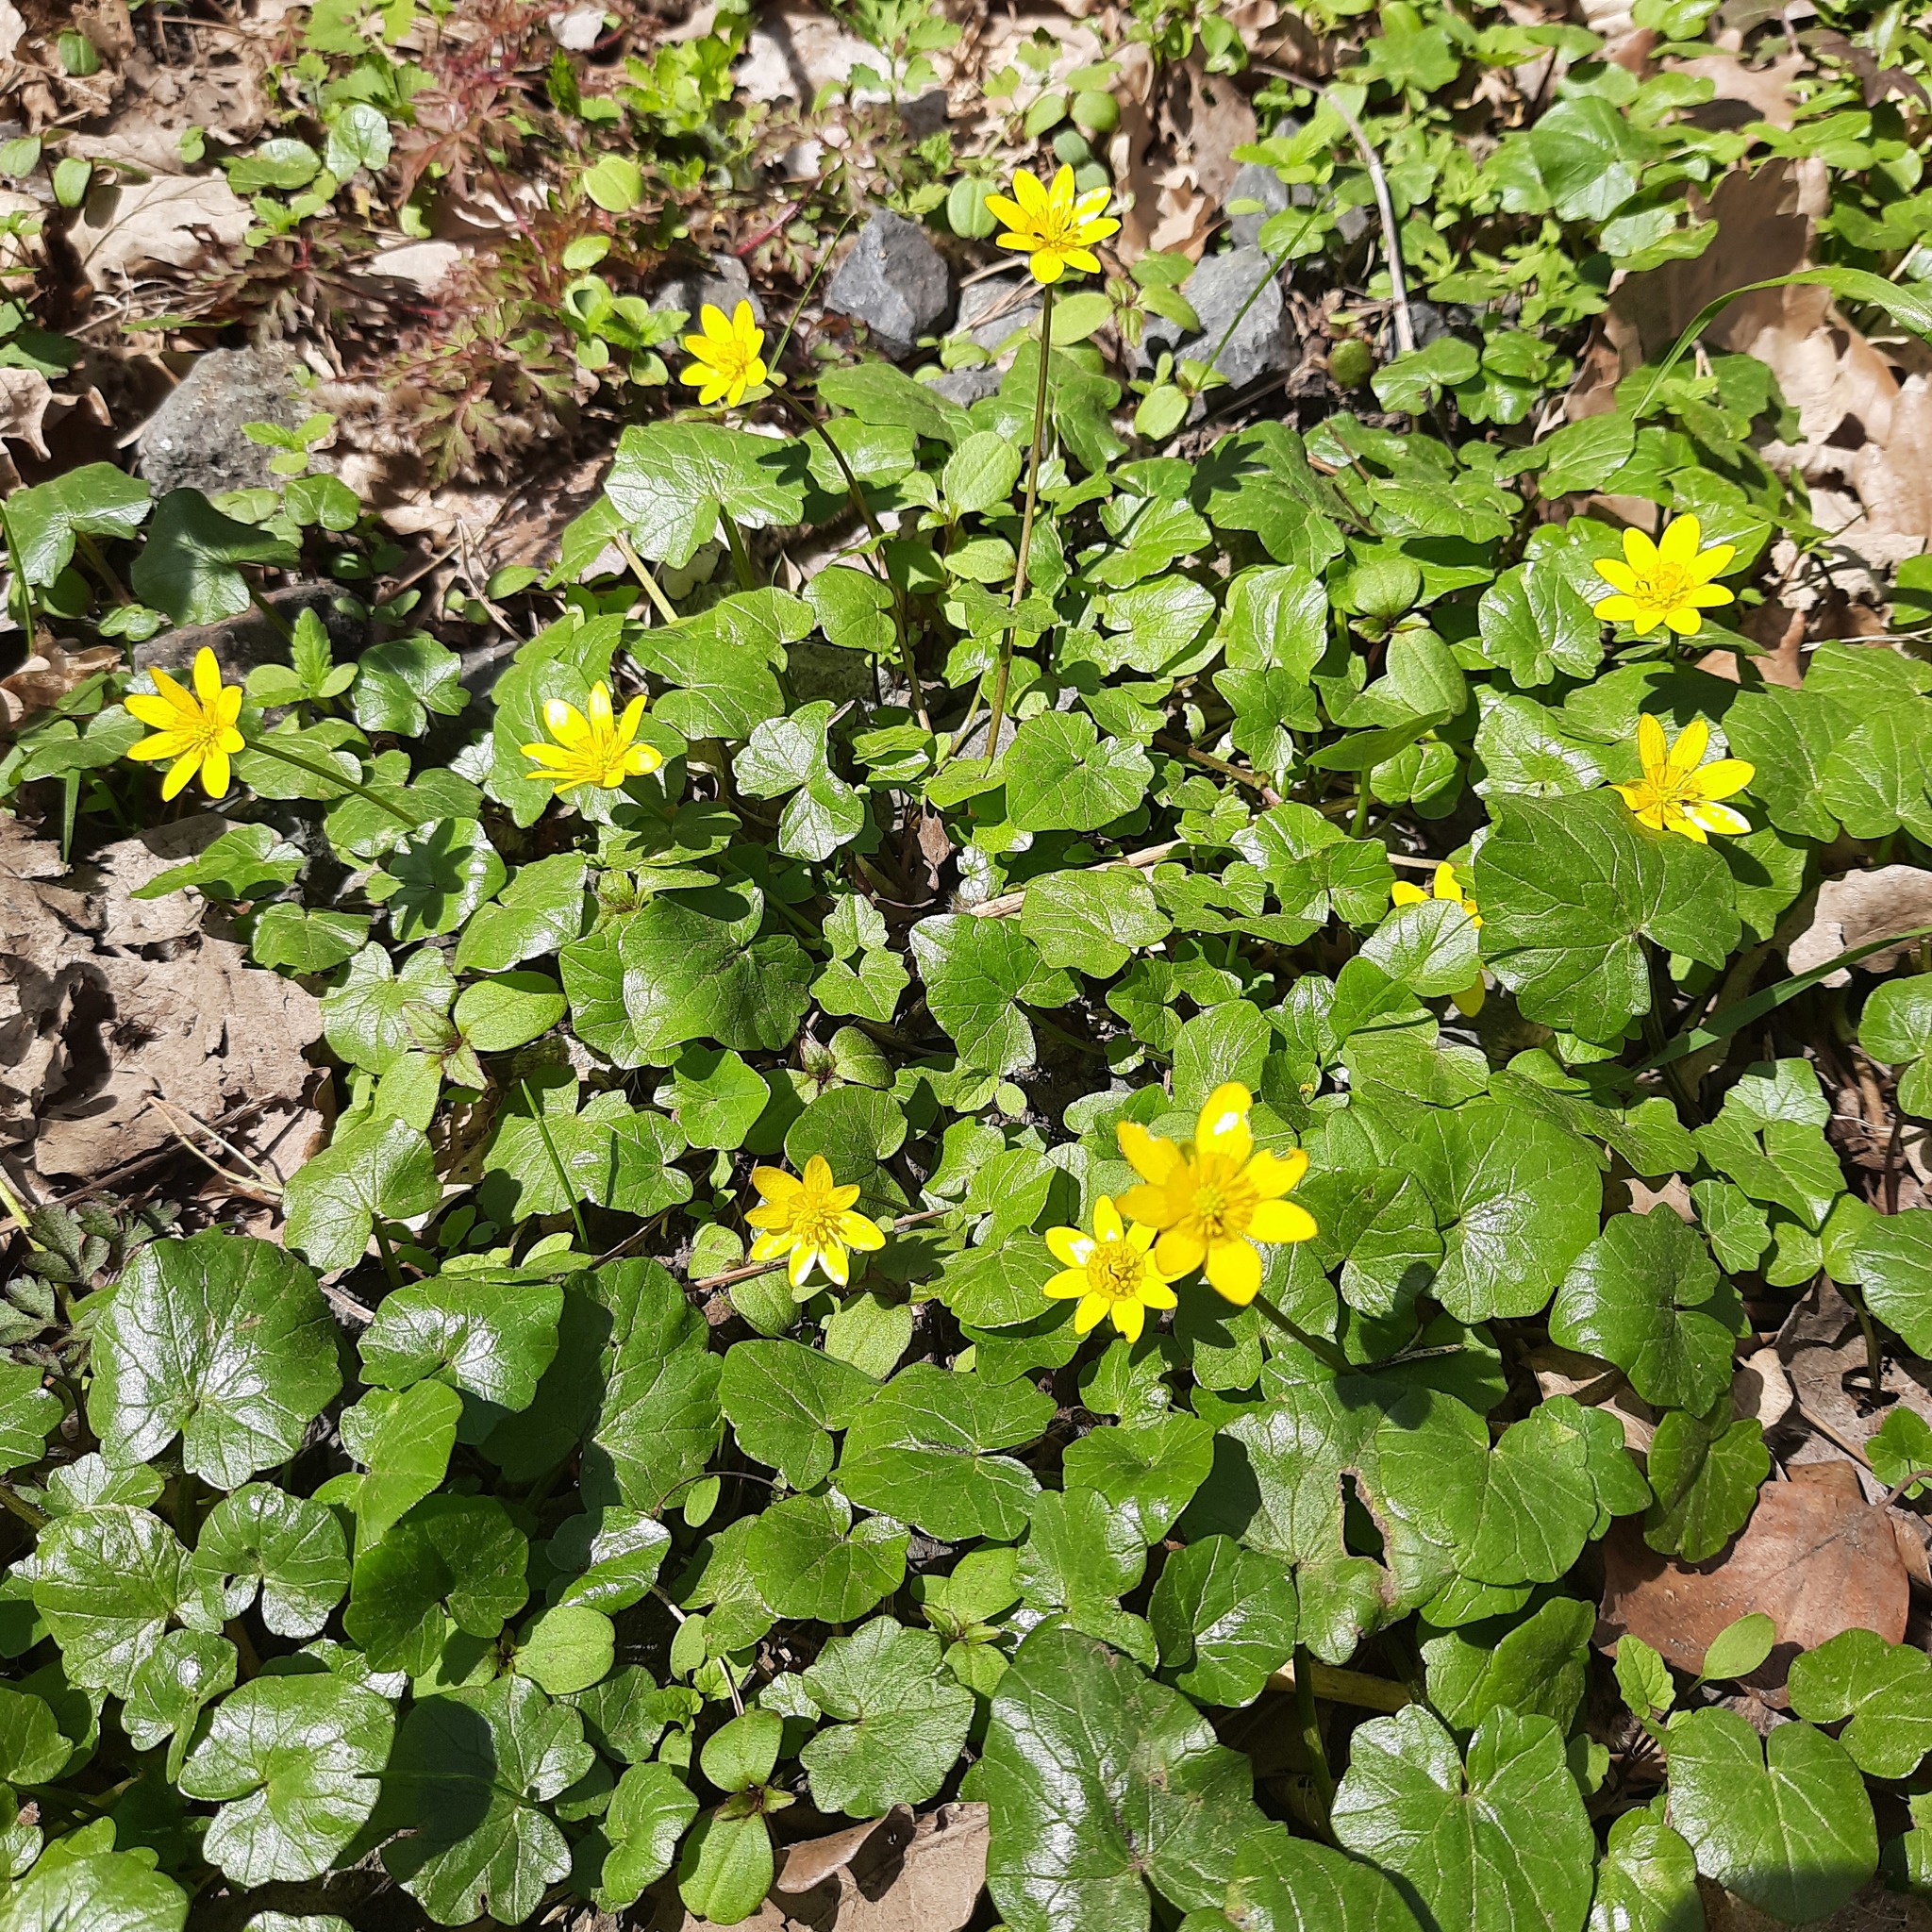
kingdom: Plantae
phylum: Tracheophyta
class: Magnoliopsida
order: Ranunculales
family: Ranunculaceae
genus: Ficaria
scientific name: Ficaria verna
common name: Lesser celandine
